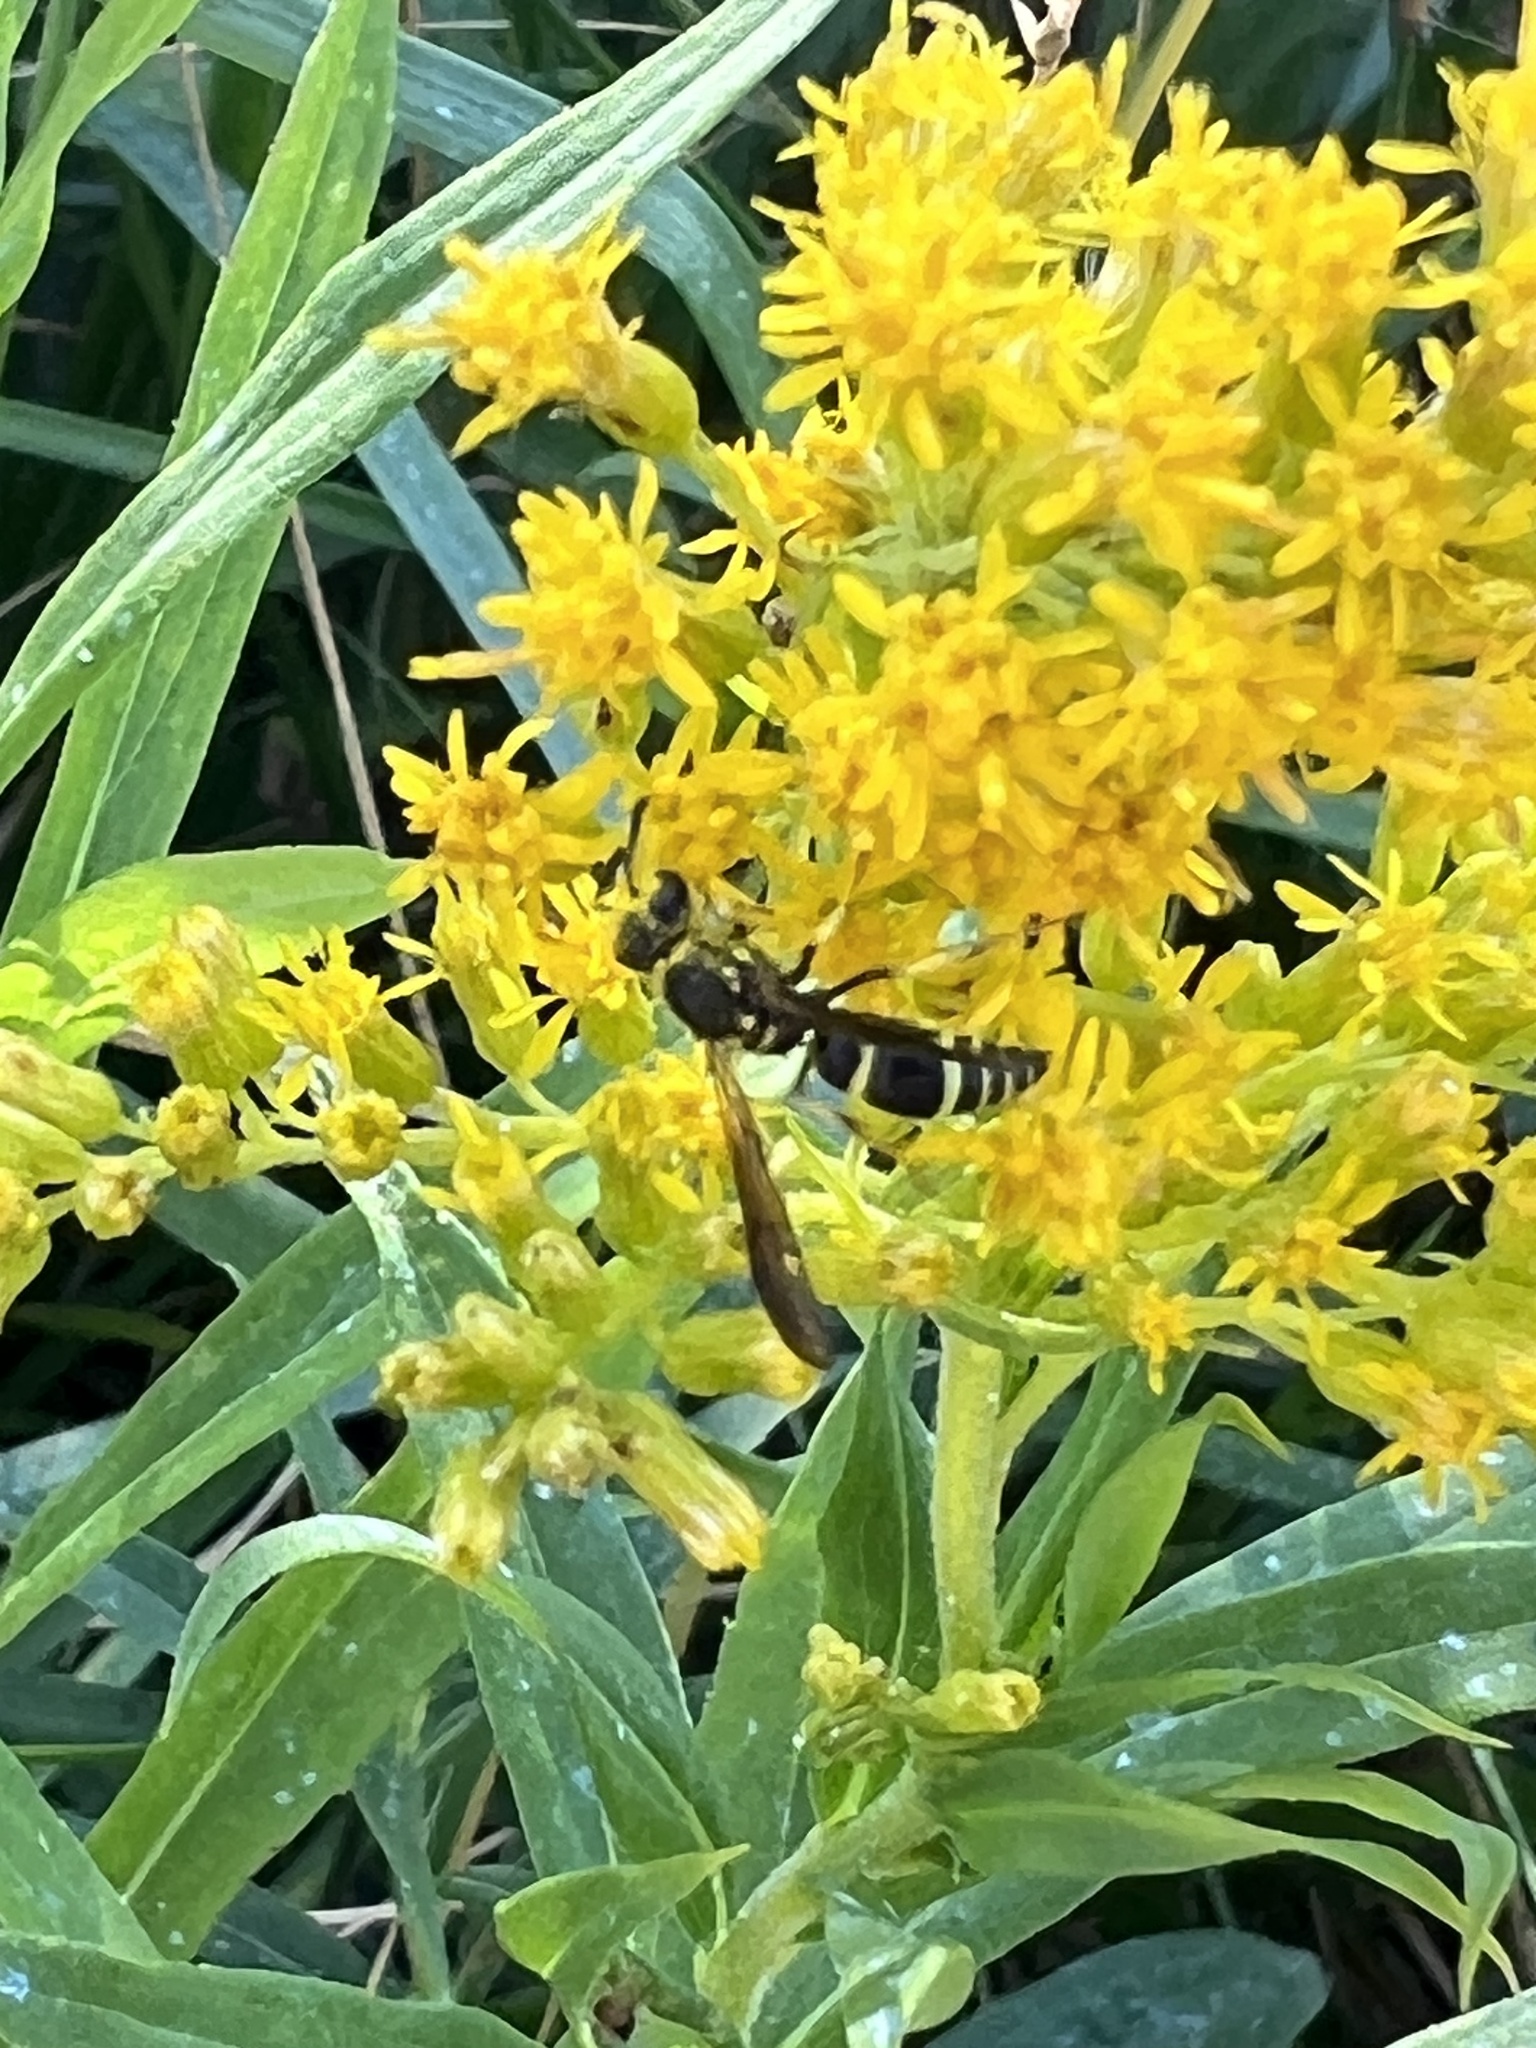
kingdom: Animalia
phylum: Arthropoda
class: Insecta
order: Hymenoptera
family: Vespidae
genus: Ancistrocerus
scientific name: Ancistrocerus adiabatus
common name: Bramble mason wasp
